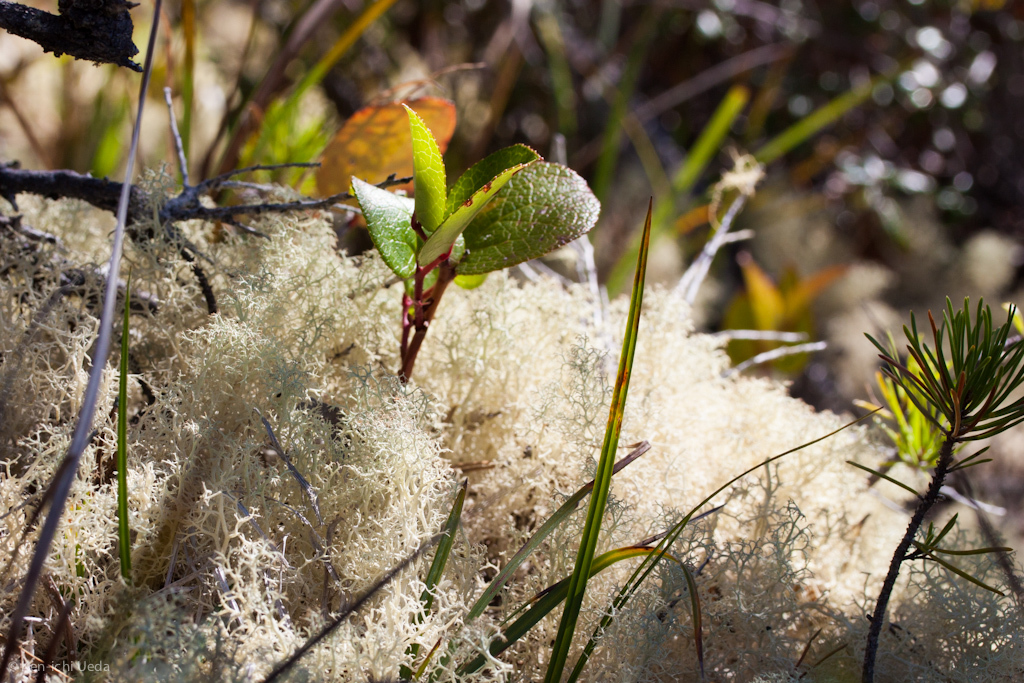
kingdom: Fungi
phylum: Ascomycota
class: Lecanoromycetes
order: Lecanorales
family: Cladoniaceae
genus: Cladonia
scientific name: Cladonia portentosa
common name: Reindeer lichen
